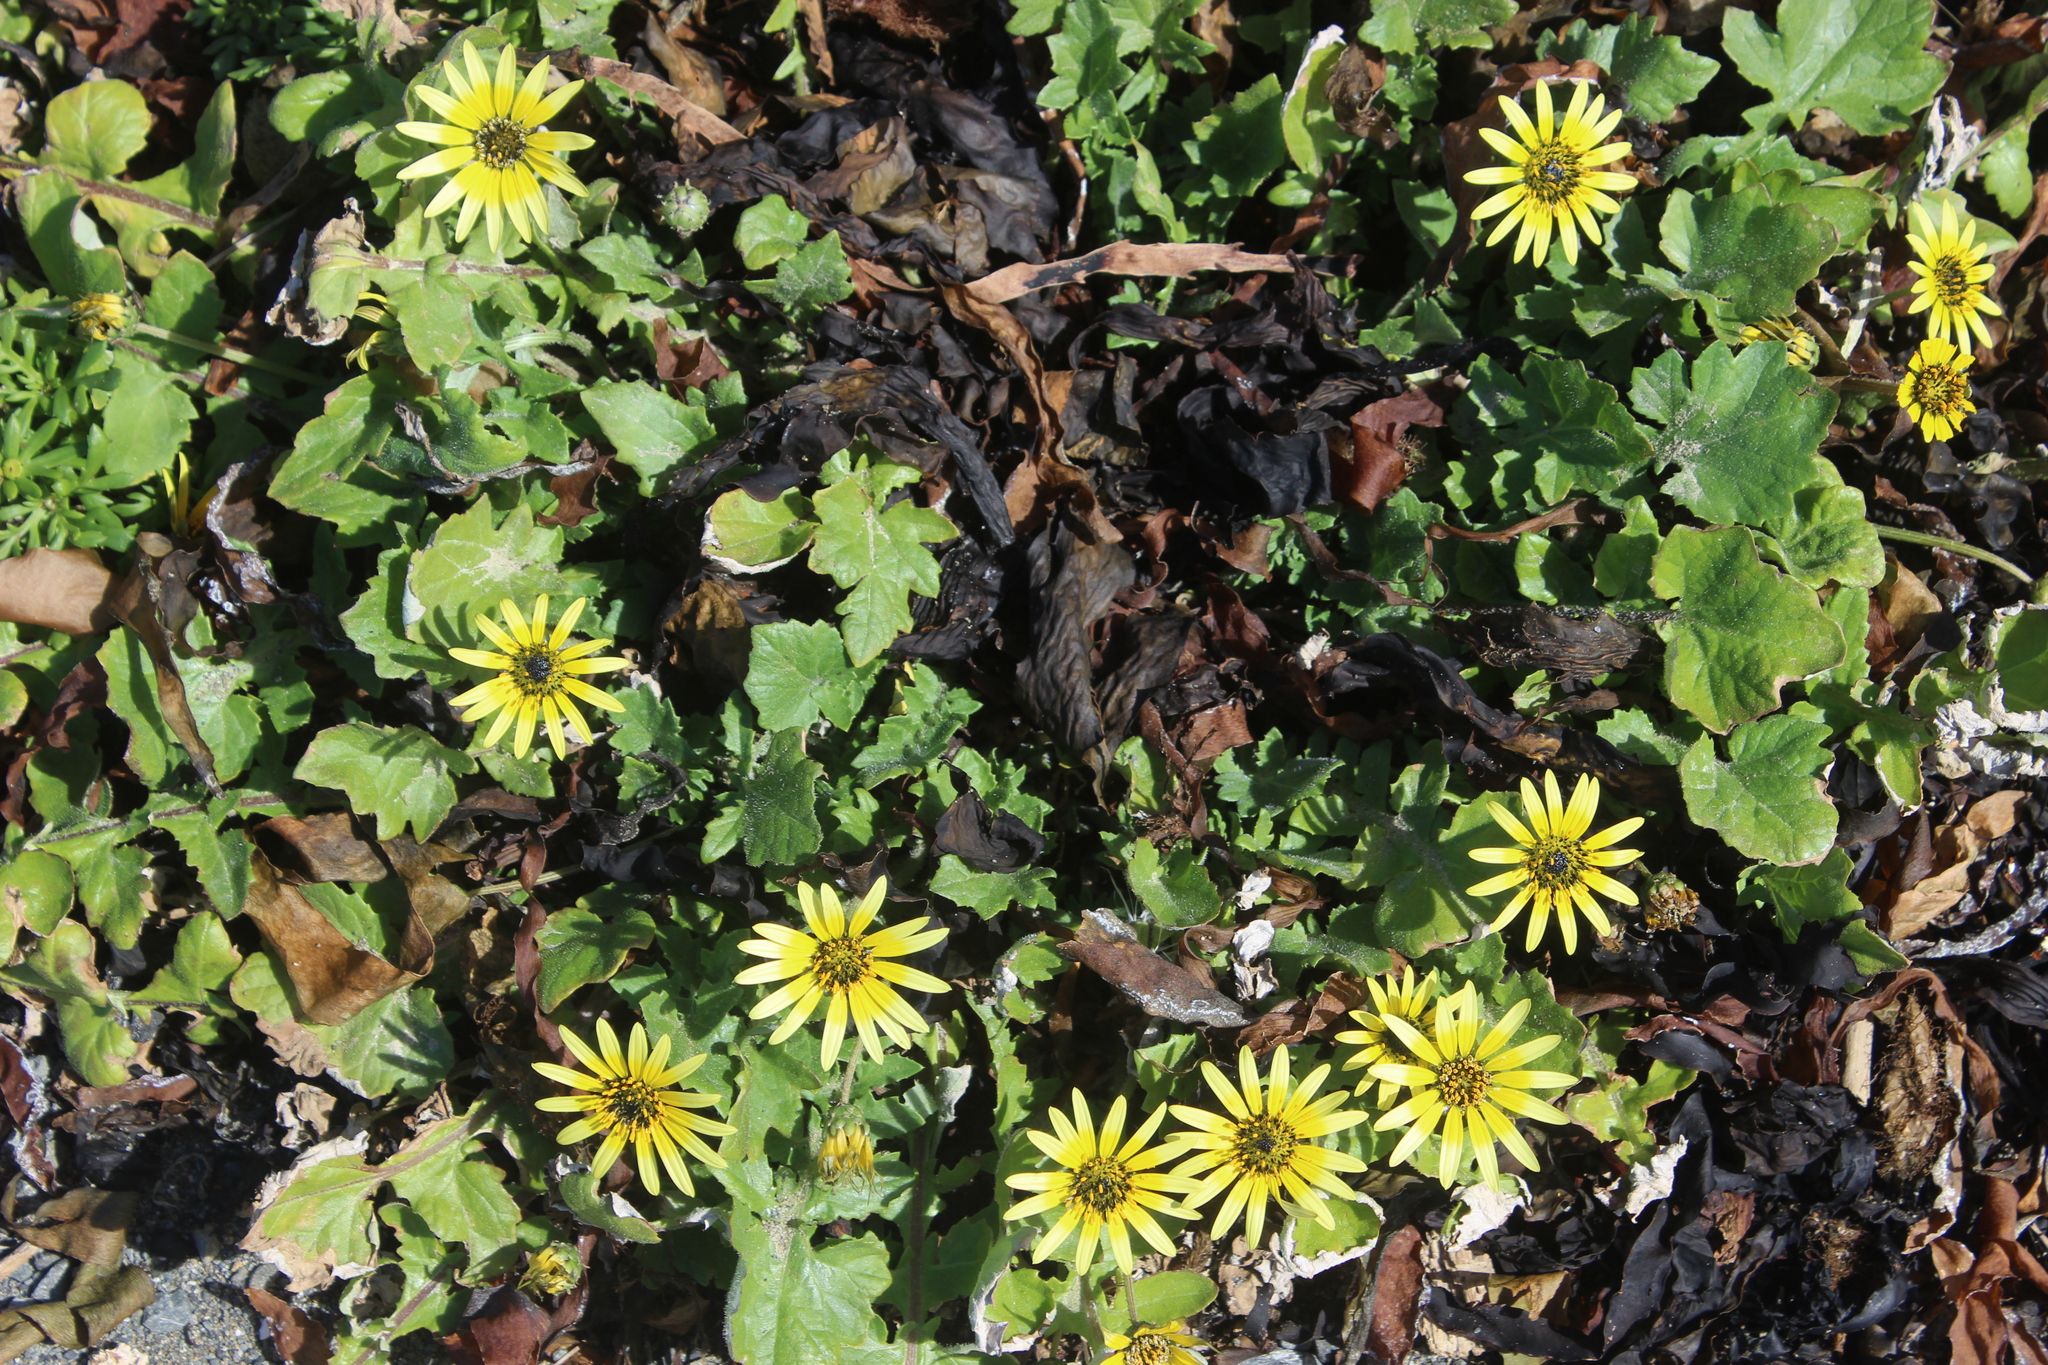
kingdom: Plantae
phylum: Tracheophyta
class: Magnoliopsida
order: Asterales
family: Asteraceae
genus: Arctotheca
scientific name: Arctotheca calendula
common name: Capeweed
